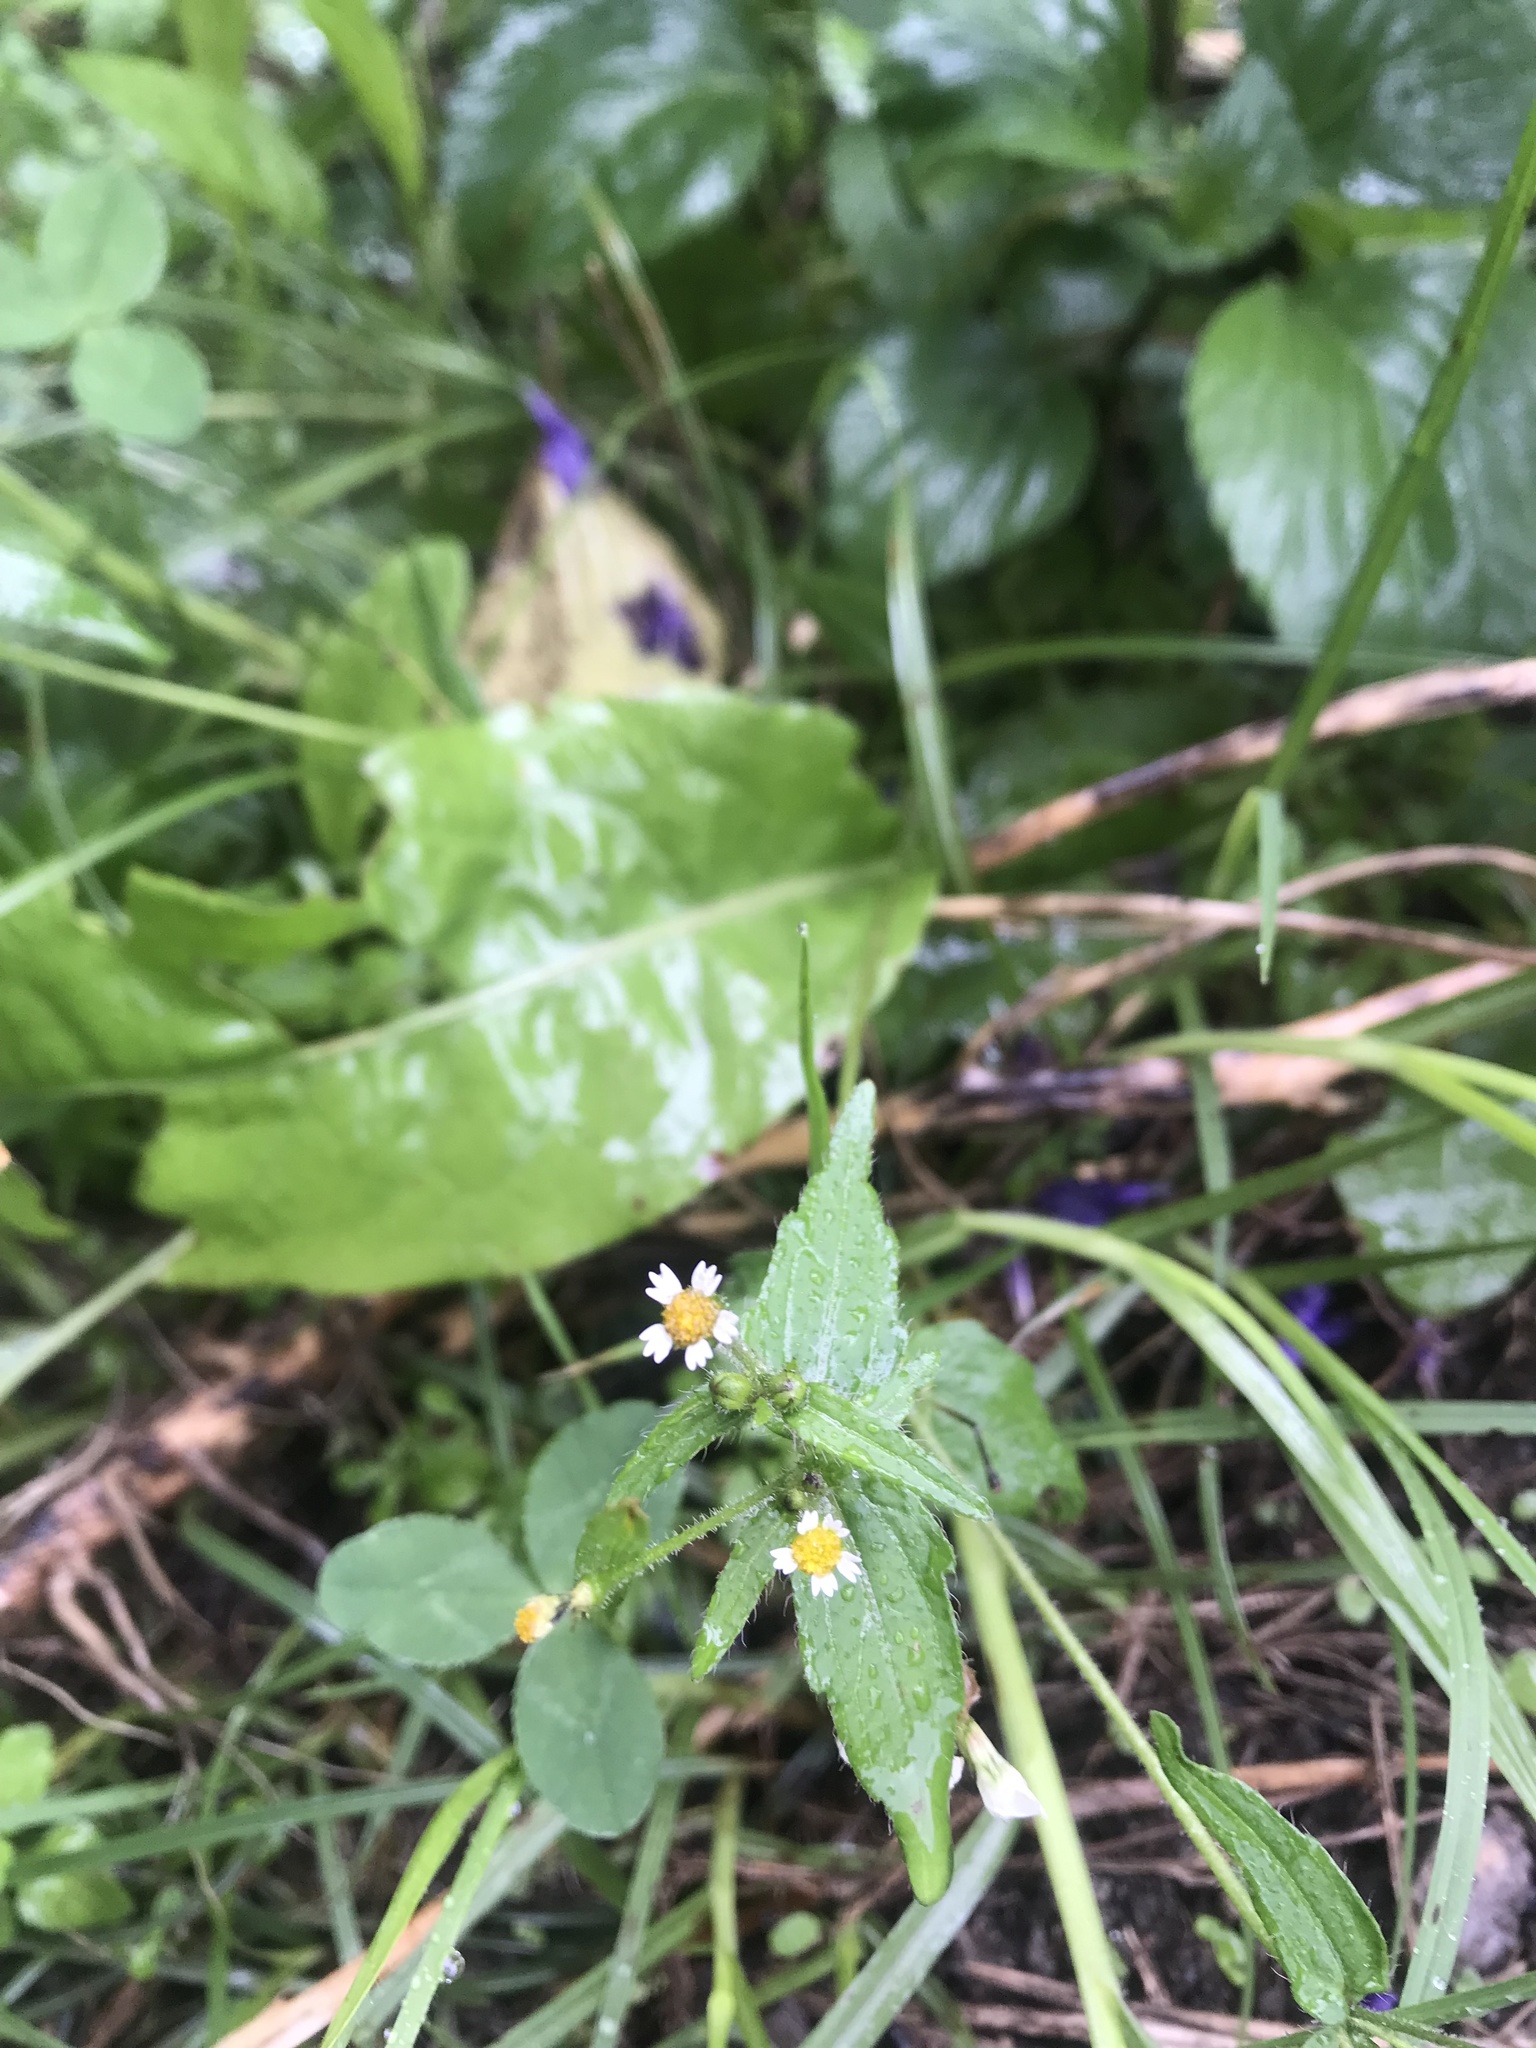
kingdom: Plantae
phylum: Tracheophyta
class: Magnoliopsida
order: Asterales
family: Asteraceae
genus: Galinsoga
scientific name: Galinsoga quadriradiata
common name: Shaggy soldier
